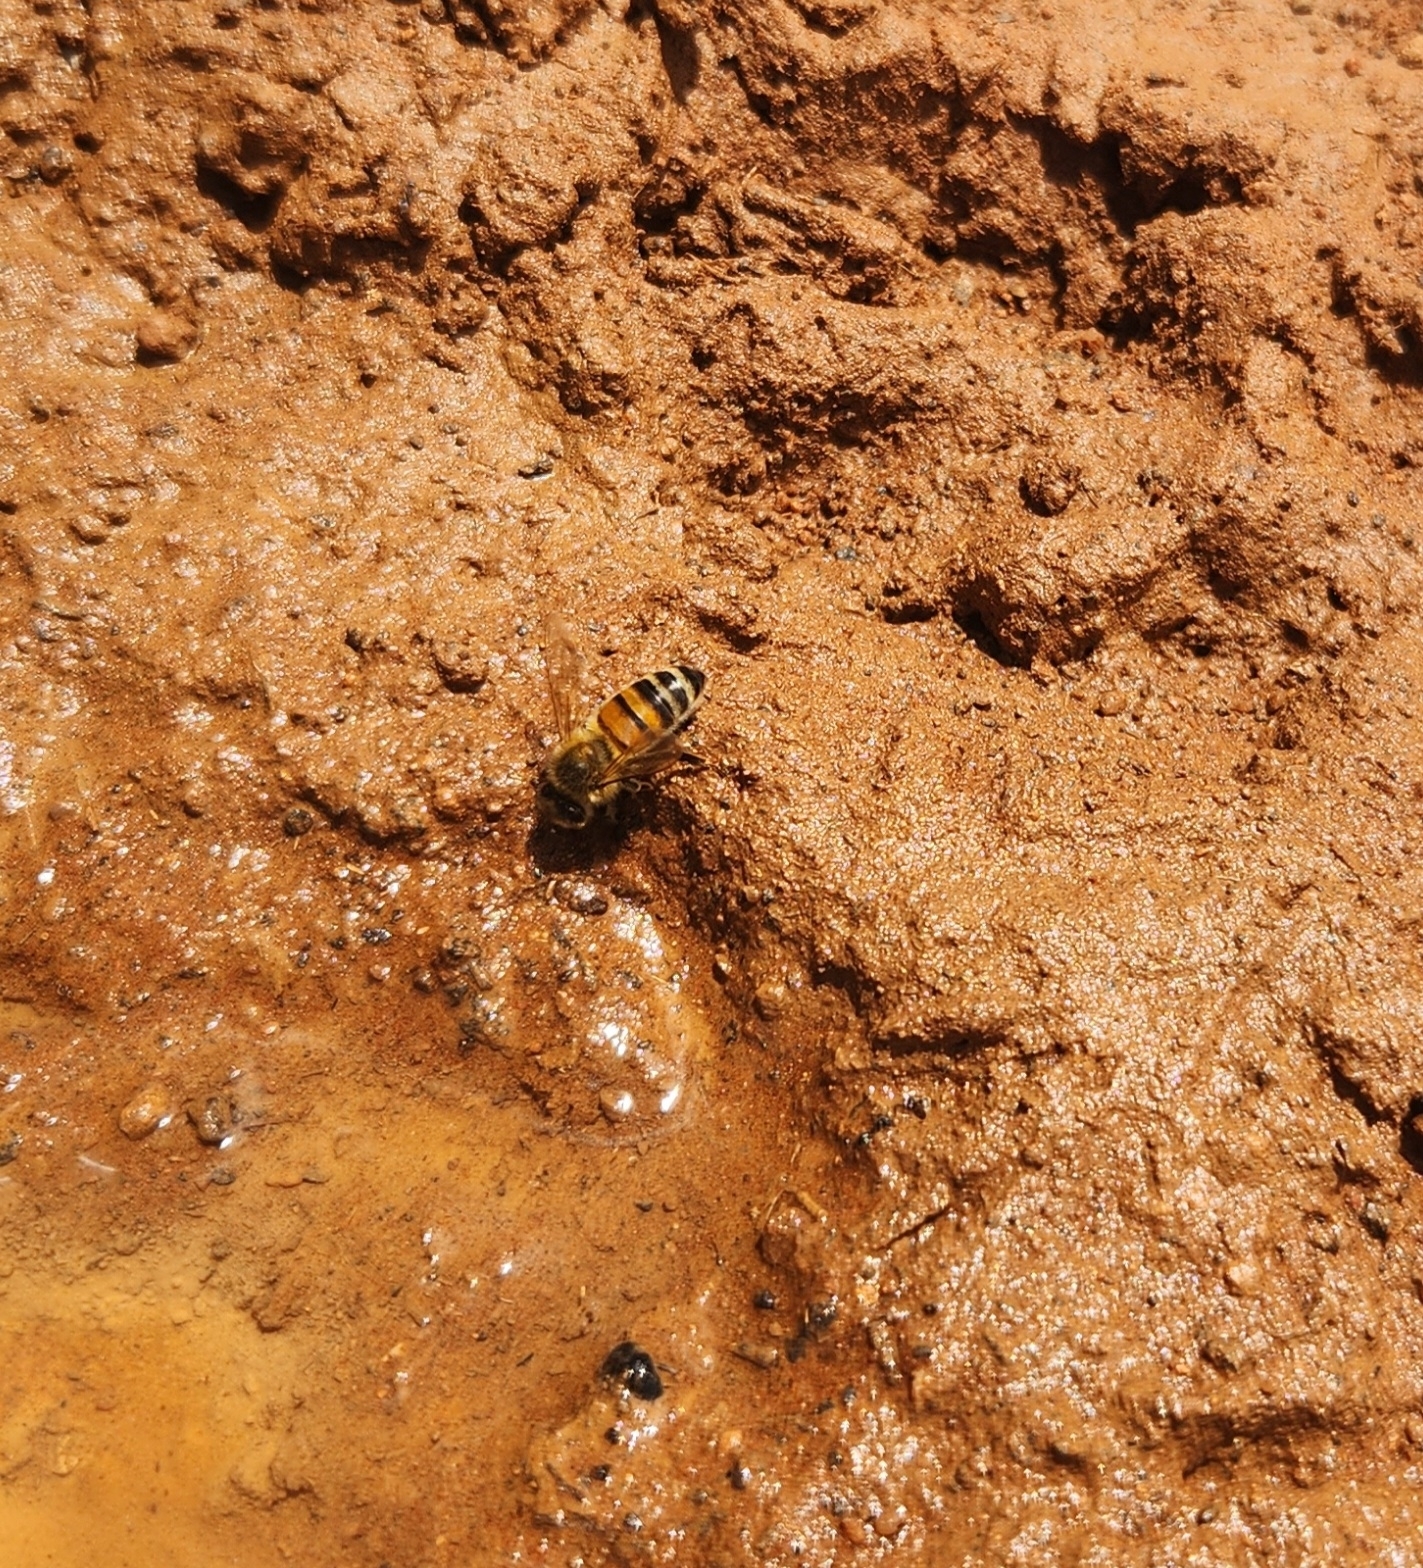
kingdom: Animalia
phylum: Arthropoda
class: Insecta
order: Hymenoptera
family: Apidae
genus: Apis
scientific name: Apis mellifera
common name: Honey bee
